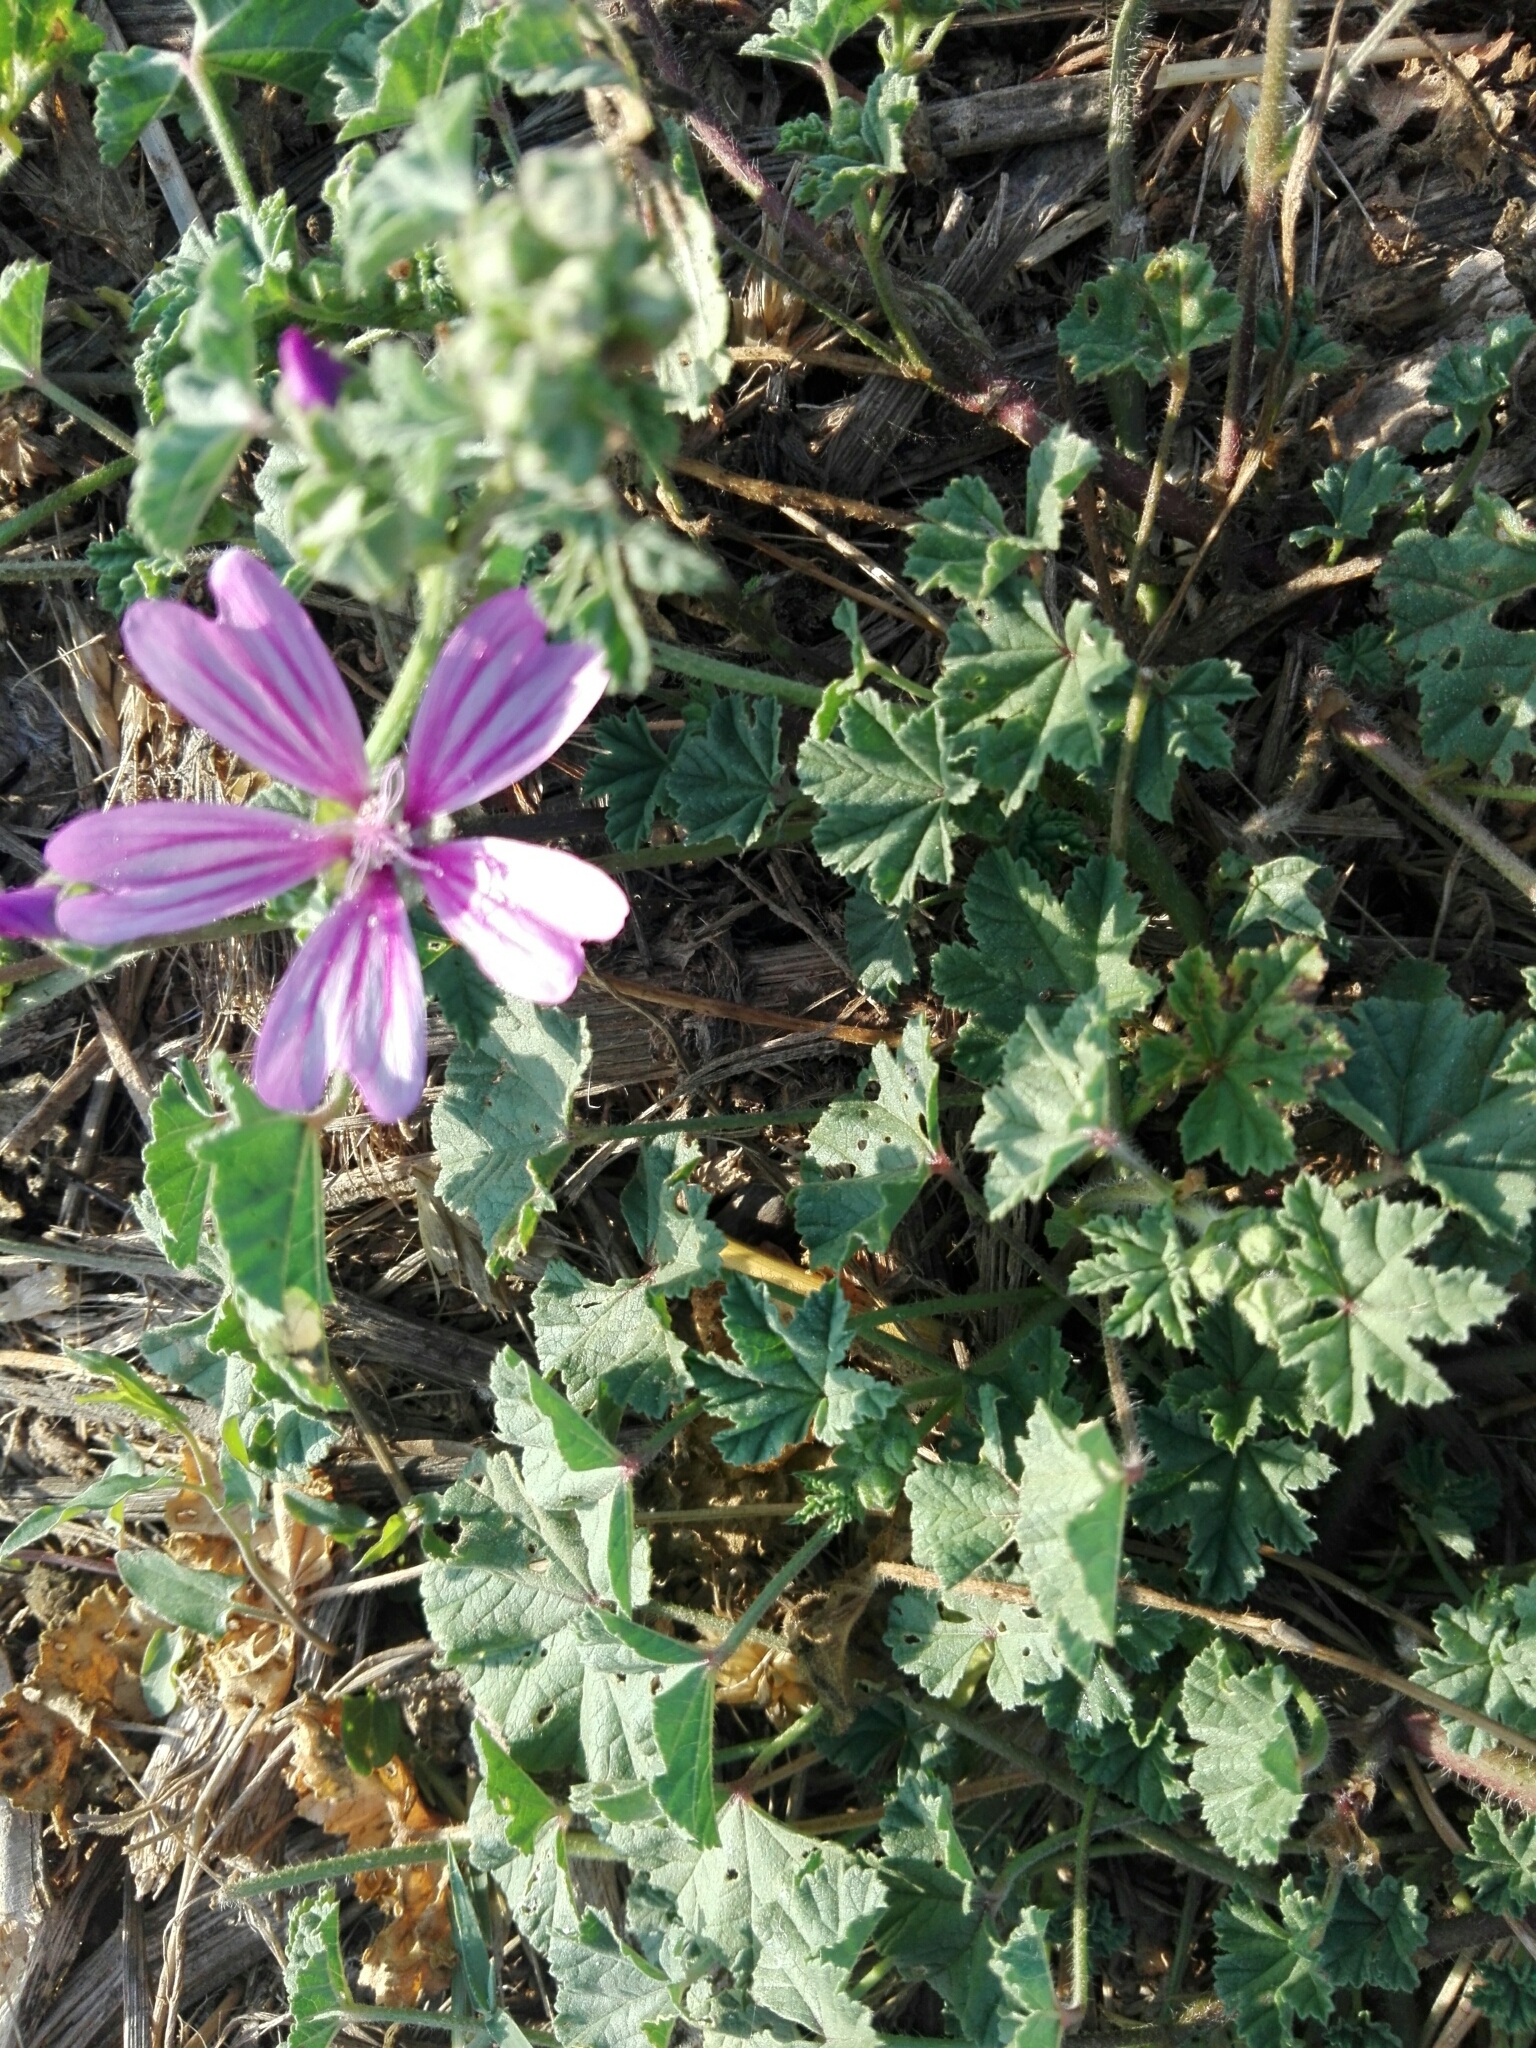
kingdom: Plantae
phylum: Tracheophyta
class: Magnoliopsida
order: Malvales
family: Malvaceae
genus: Malva
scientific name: Malva sylvestris
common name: Common mallow
